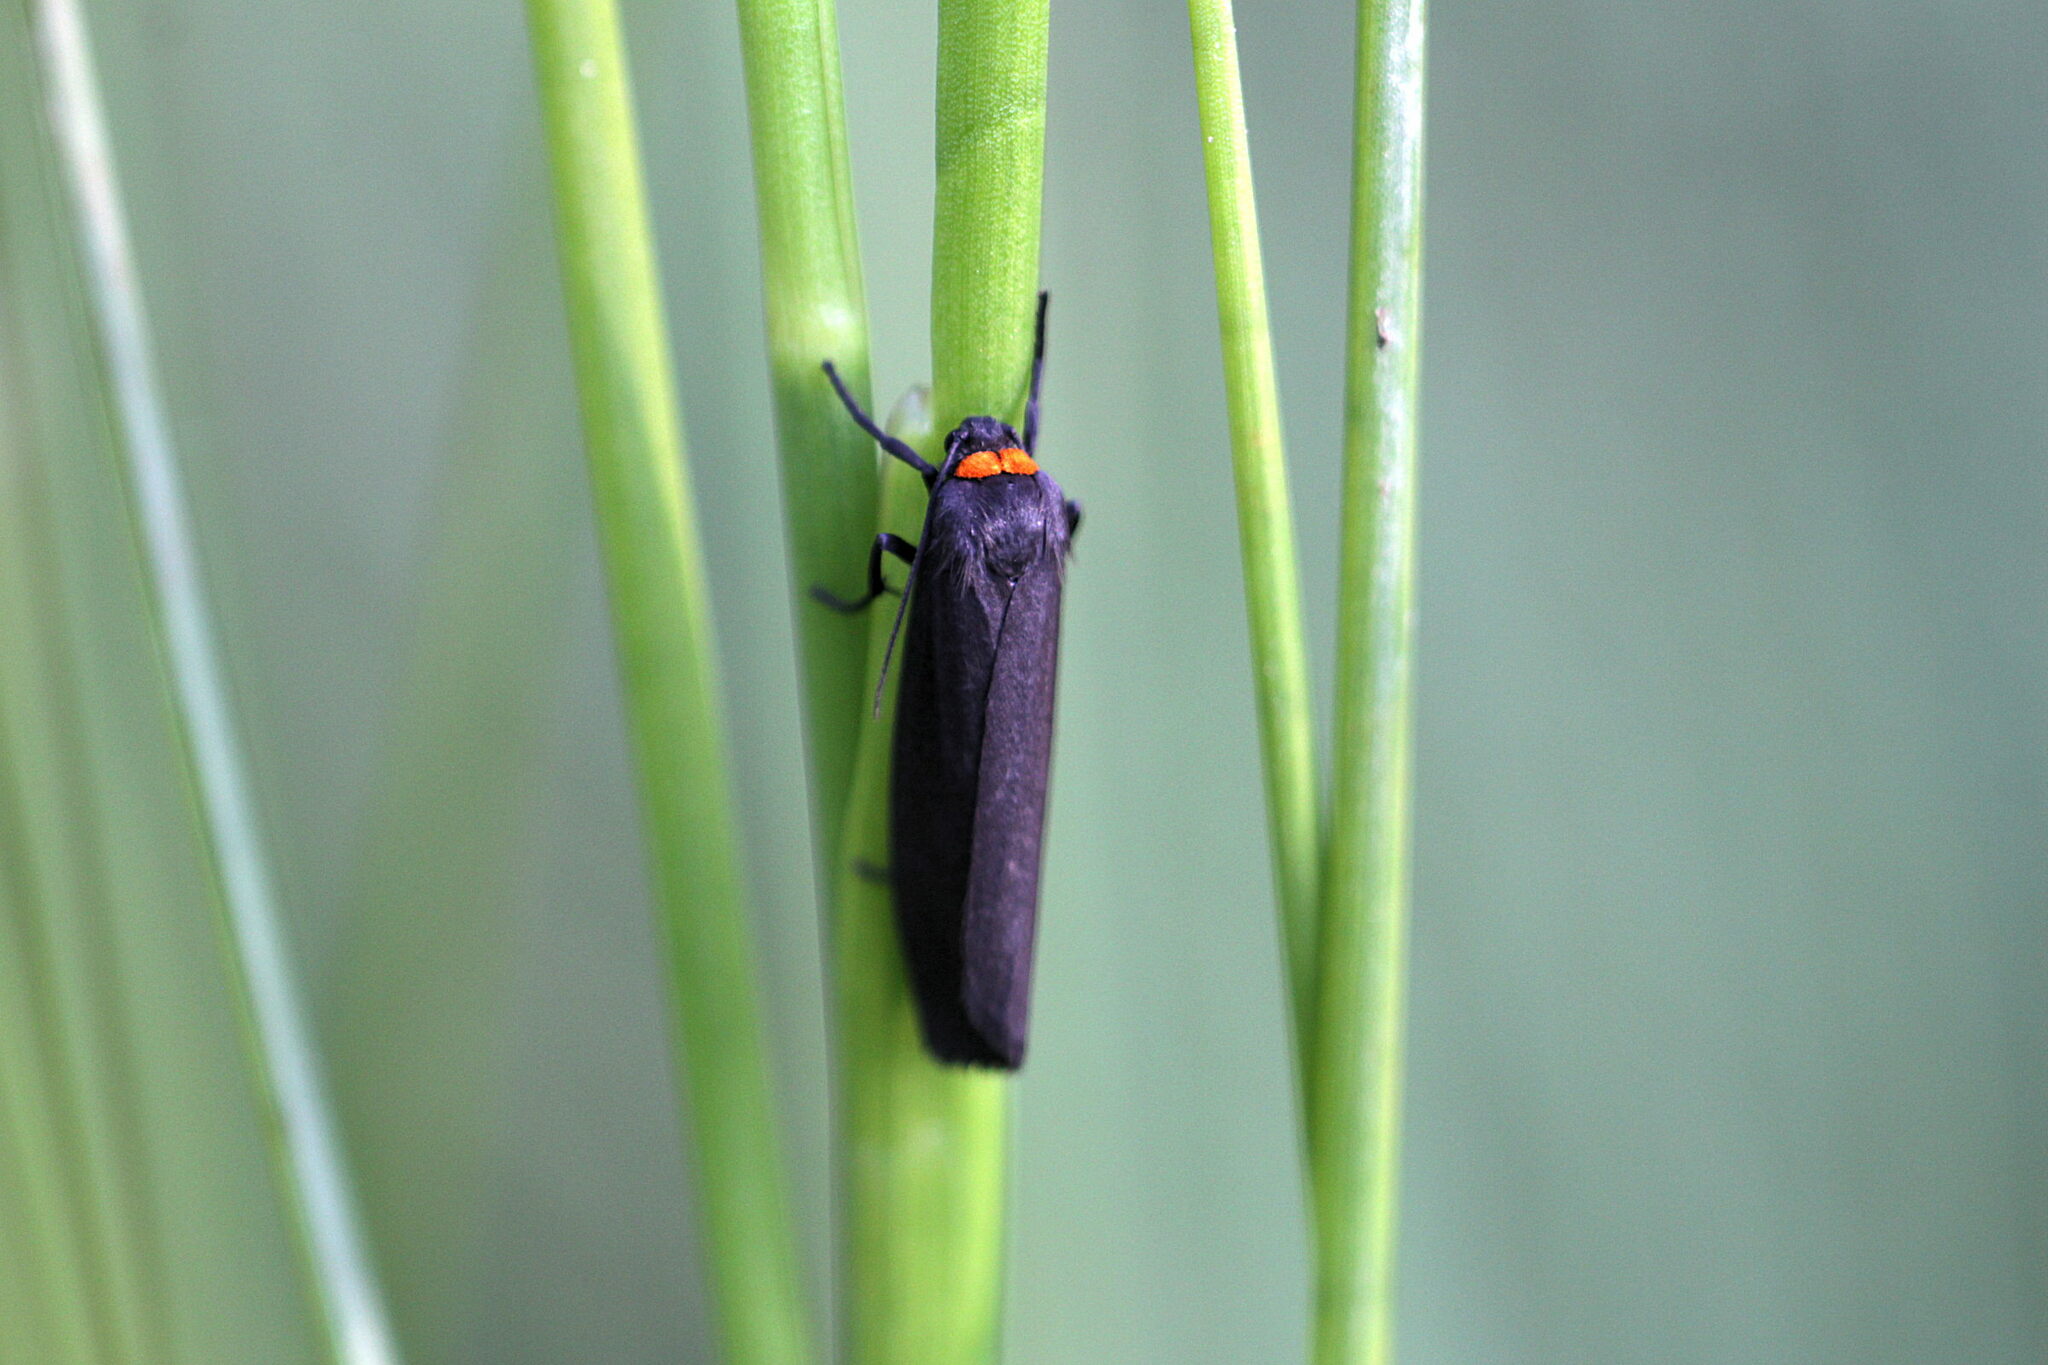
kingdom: Animalia
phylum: Arthropoda
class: Insecta
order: Lepidoptera
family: Erebidae
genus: Atolmis
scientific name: Atolmis rubricollis
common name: Red-necked footman
